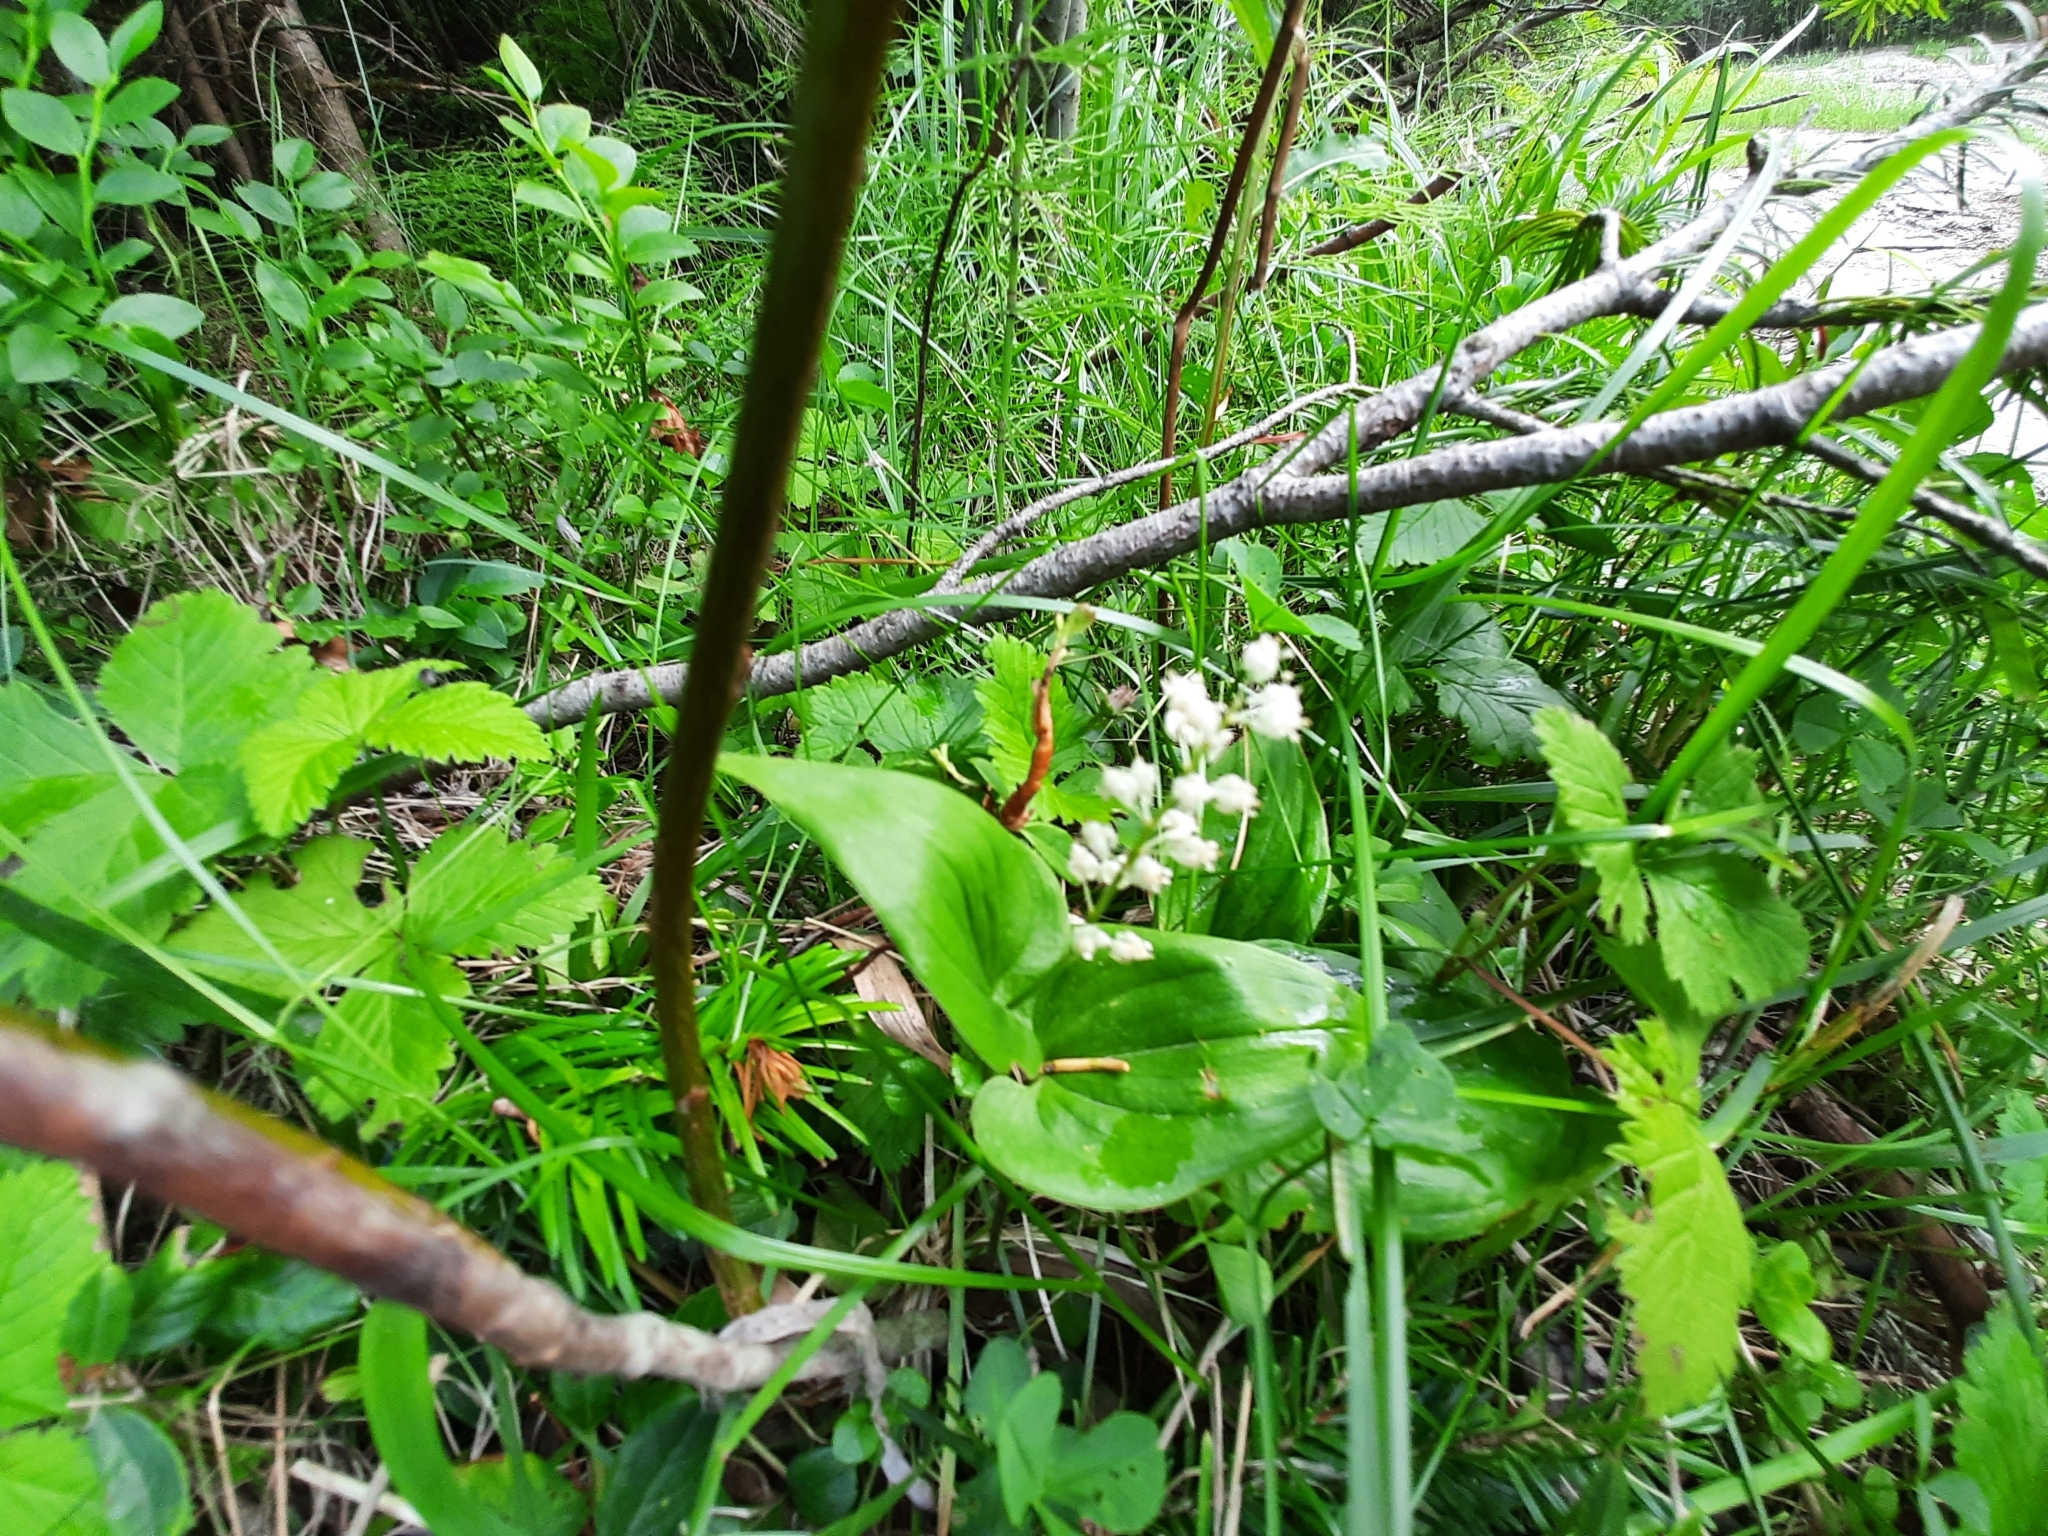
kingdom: Plantae
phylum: Tracheophyta
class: Liliopsida
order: Asparagales
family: Asparagaceae
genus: Maianthemum
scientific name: Maianthemum bifolium
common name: May lily
